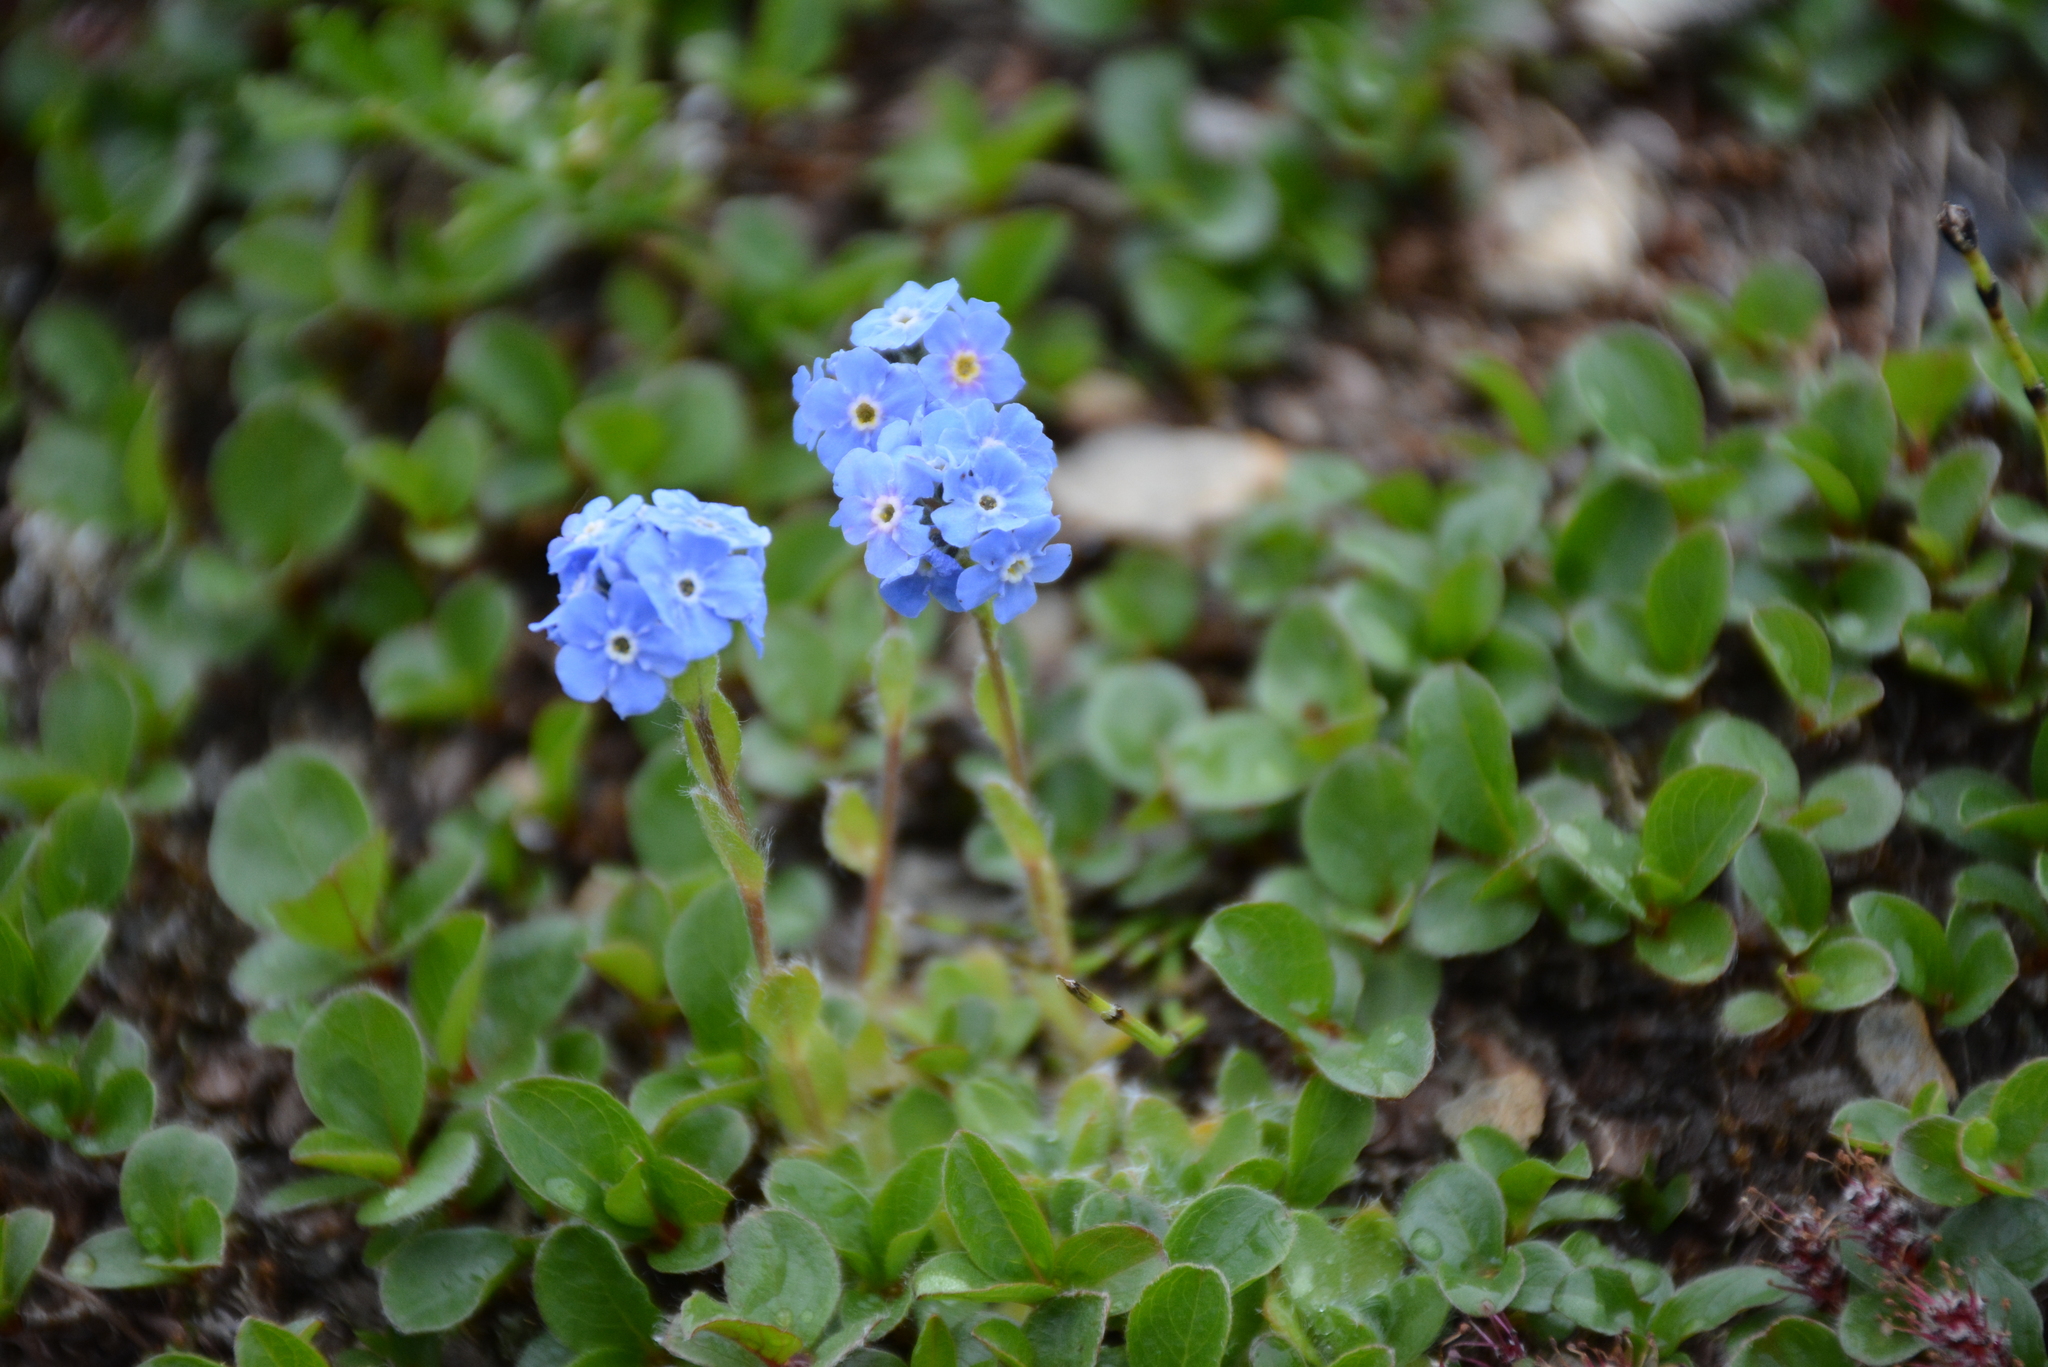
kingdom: Plantae
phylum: Tracheophyta
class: Magnoliopsida
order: Boraginales
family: Boraginaceae
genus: Eritrichium
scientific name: Eritrichium villosum
